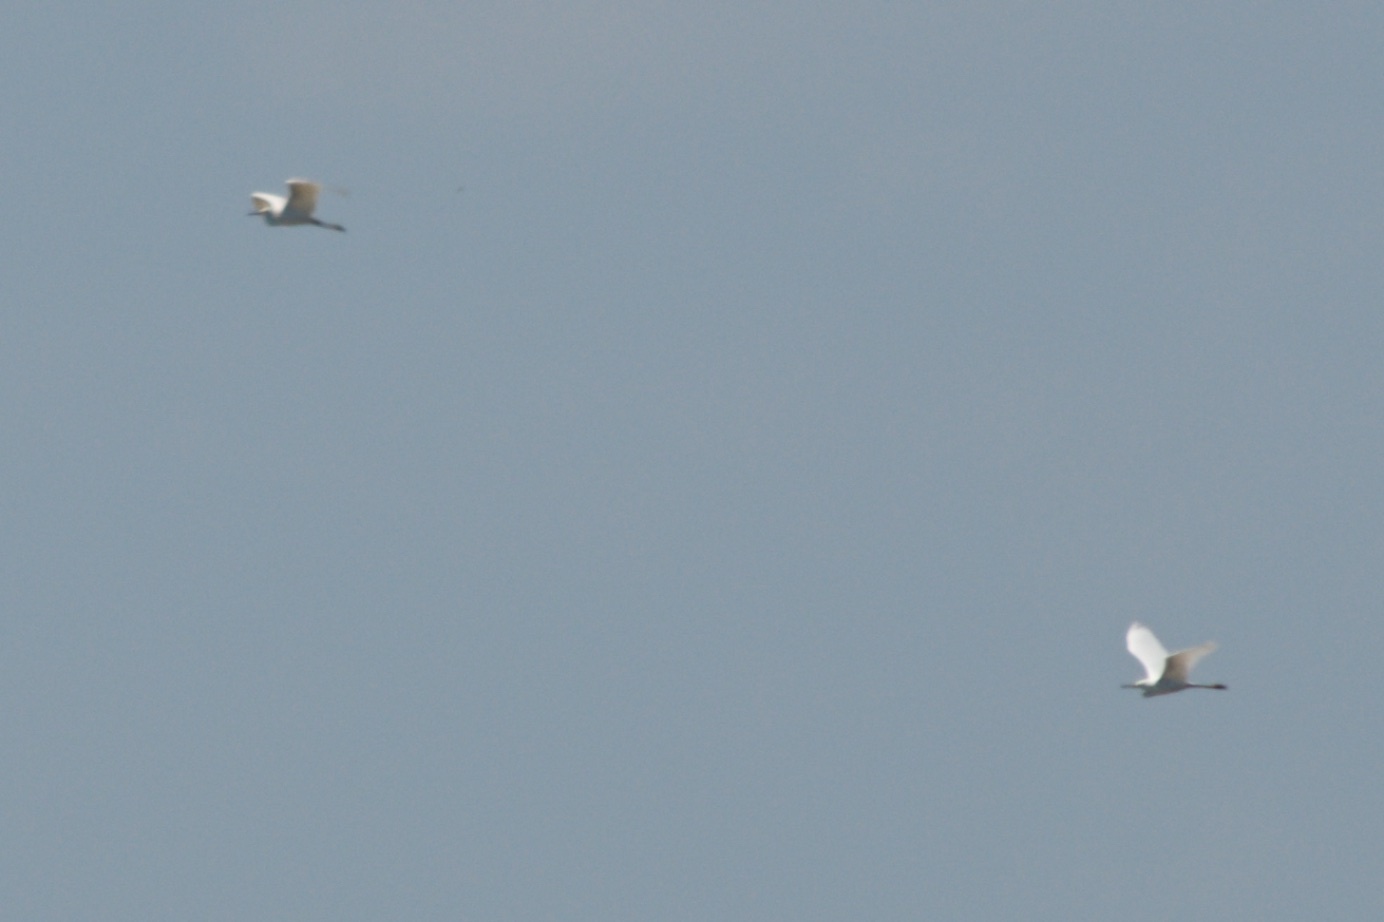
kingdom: Animalia
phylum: Chordata
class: Aves
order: Pelecaniformes
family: Ardeidae
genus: Ardea
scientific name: Ardea alba
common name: Great egret
